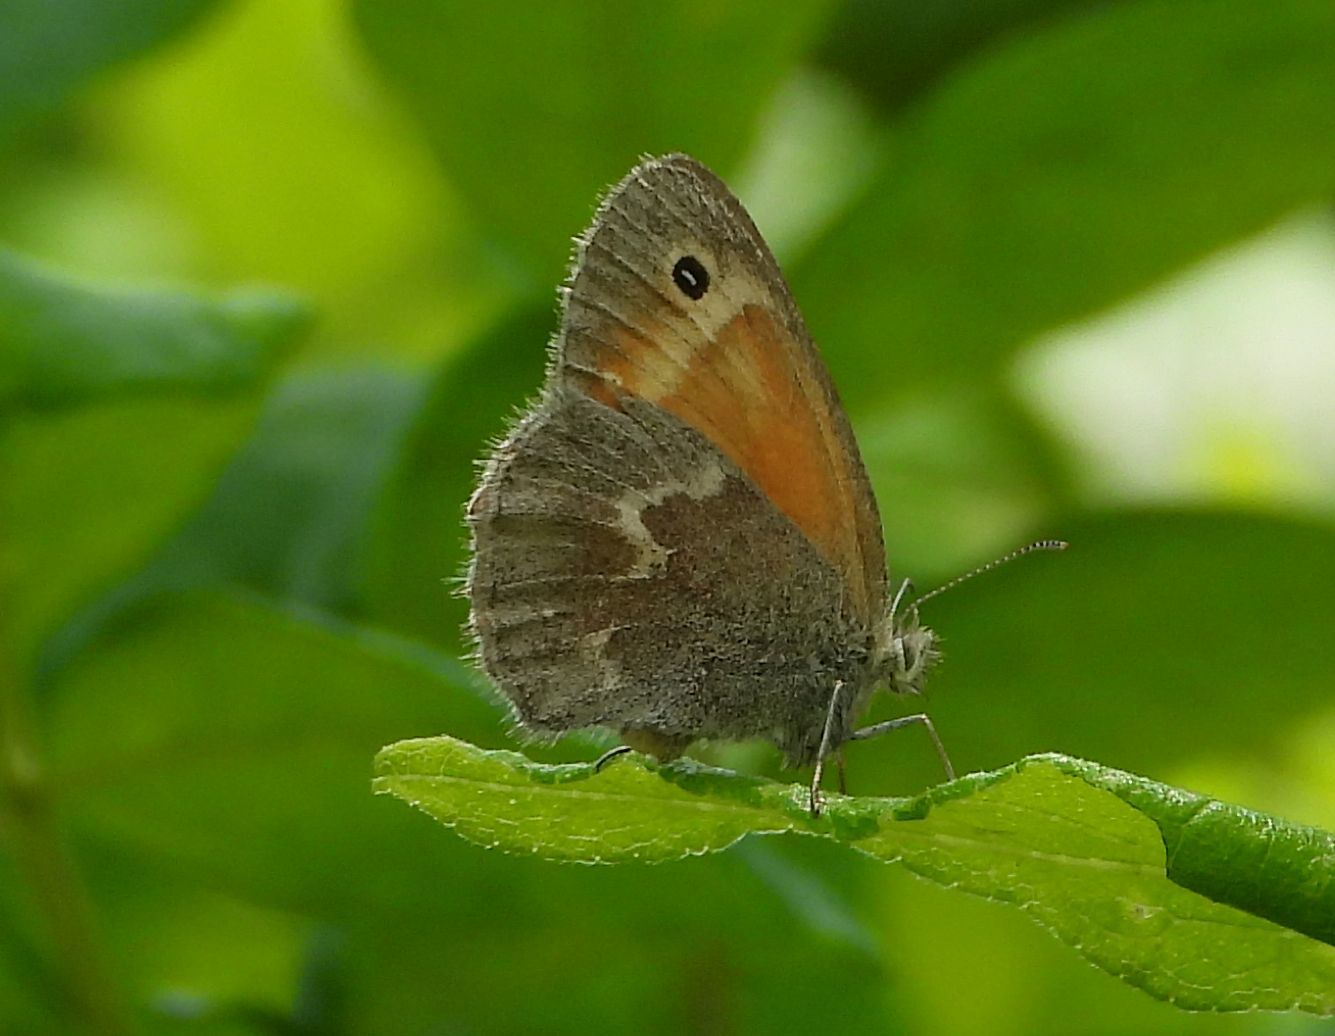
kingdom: Animalia
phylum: Arthropoda
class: Insecta
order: Lepidoptera
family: Nymphalidae
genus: Coenonympha
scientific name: Coenonympha california
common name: Common ringlet
